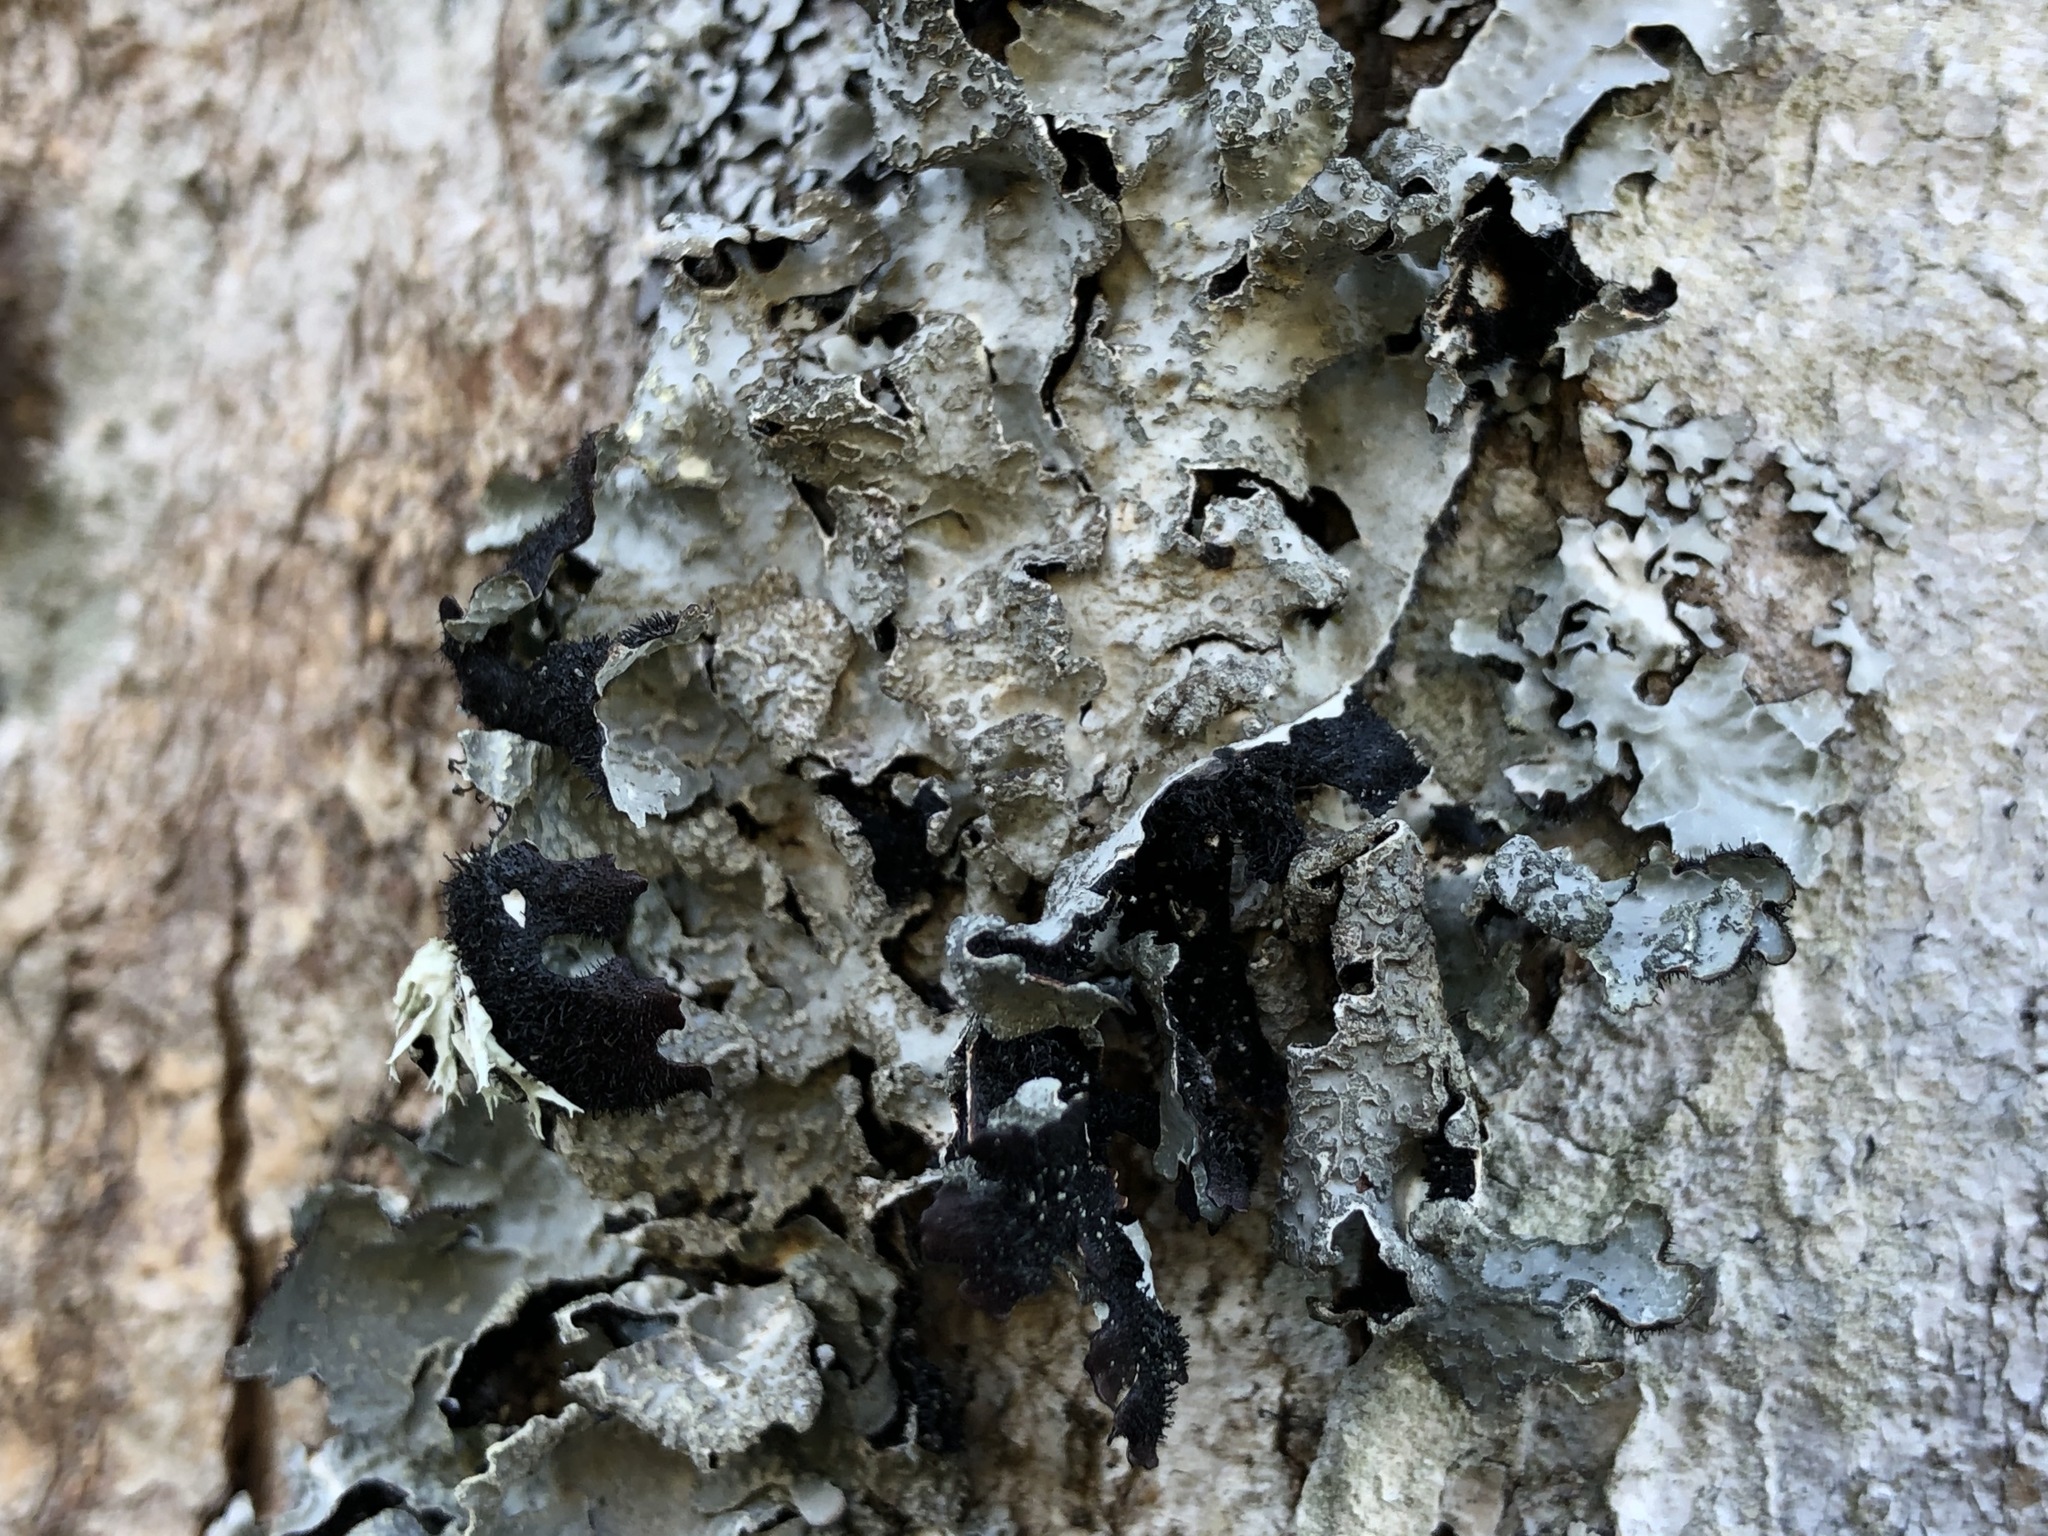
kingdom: Fungi
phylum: Ascomycota
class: Lecanoromycetes
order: Lecanorales
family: Parmeliaceae
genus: Parmelia
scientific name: Parmelia sulcata
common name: Netted shield lichen
